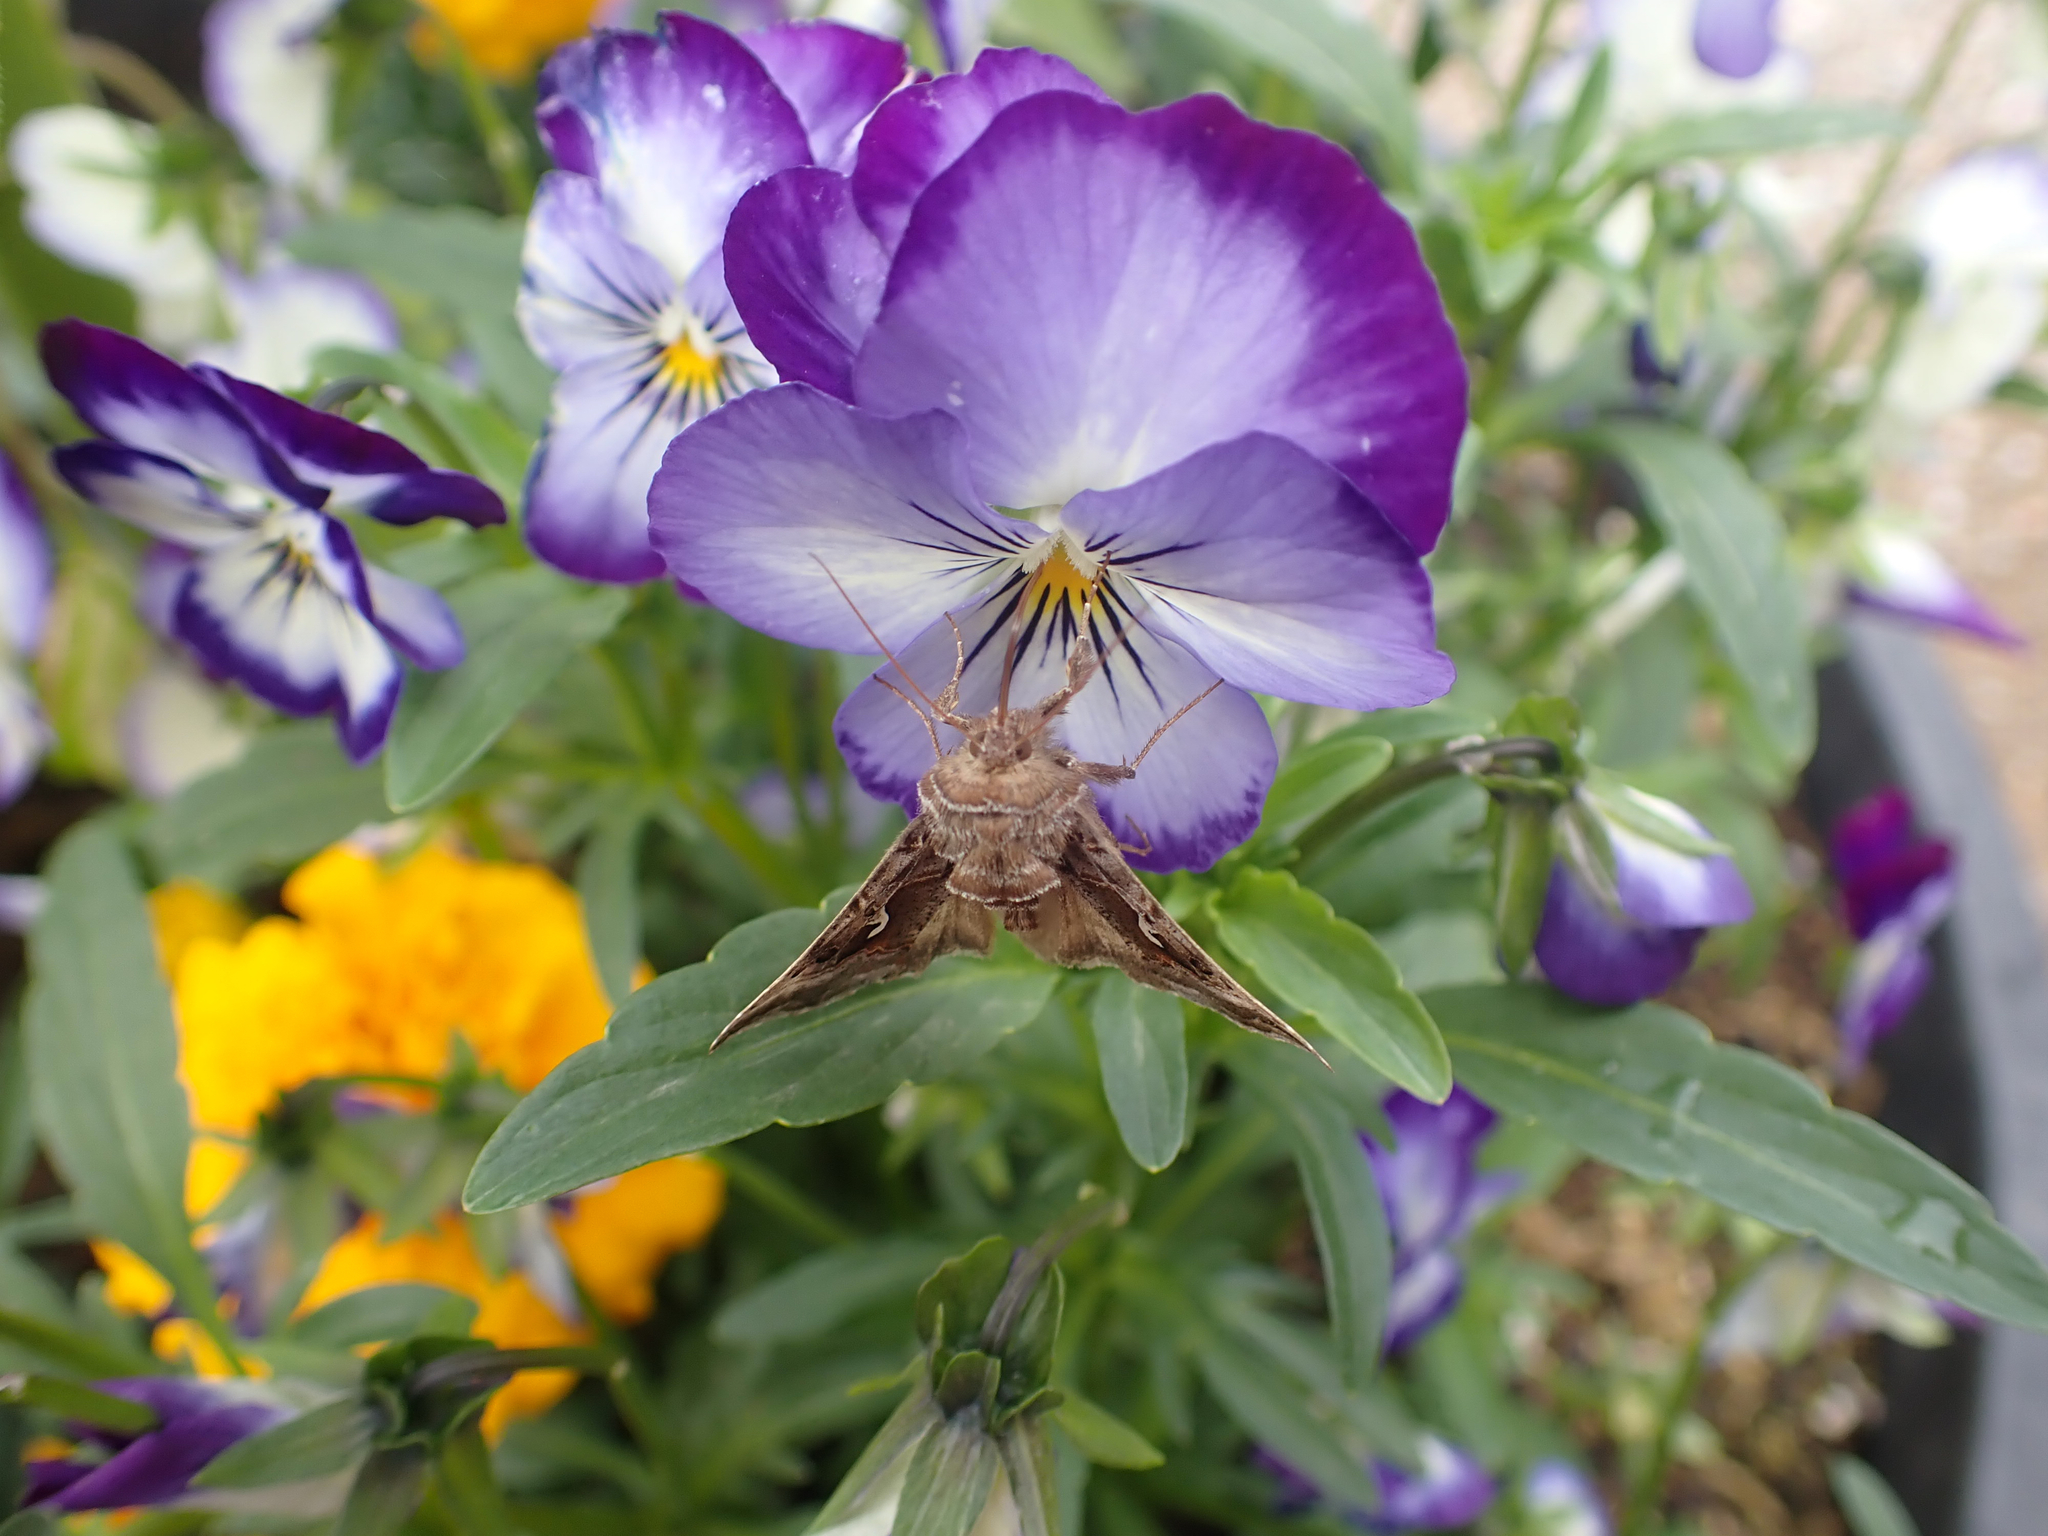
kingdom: Animalia
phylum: Arthropoda
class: Insecta
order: Lepidoptera
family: Noctuidae
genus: Autographa
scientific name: Autographa pseudogamma
